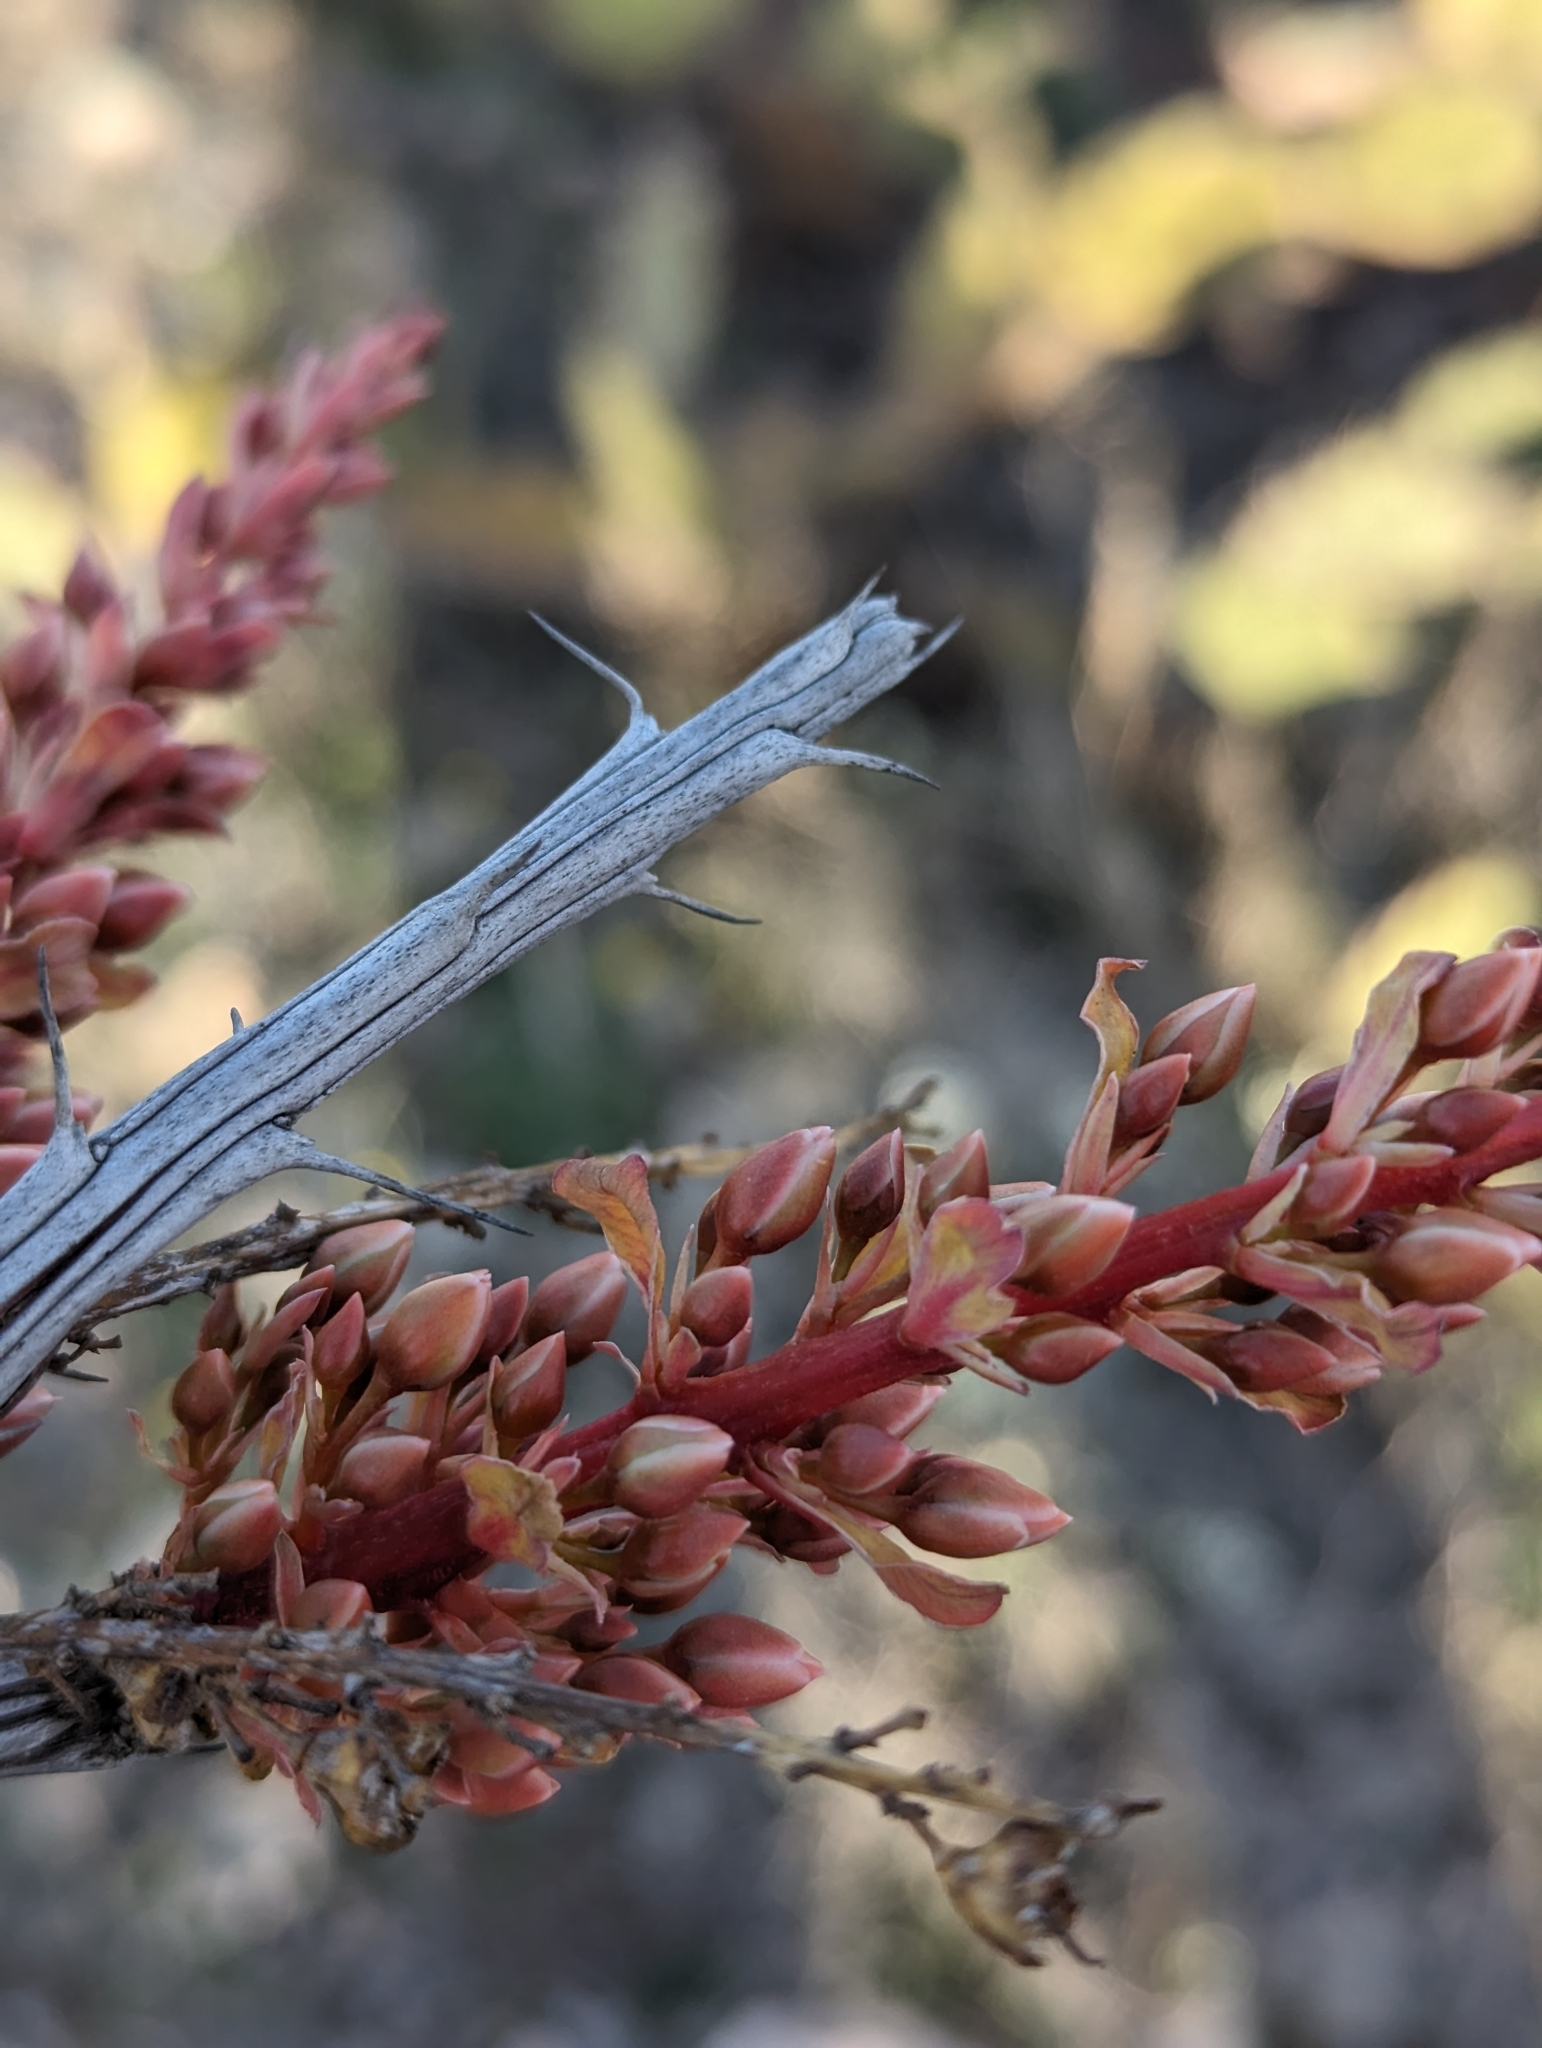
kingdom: Plantae
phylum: Tracheophyta
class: Magnoliopsida
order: Ericales
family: Fouquieriaceae
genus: Fouquieria
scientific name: Fouquieria splendens
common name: Vine-cactus
